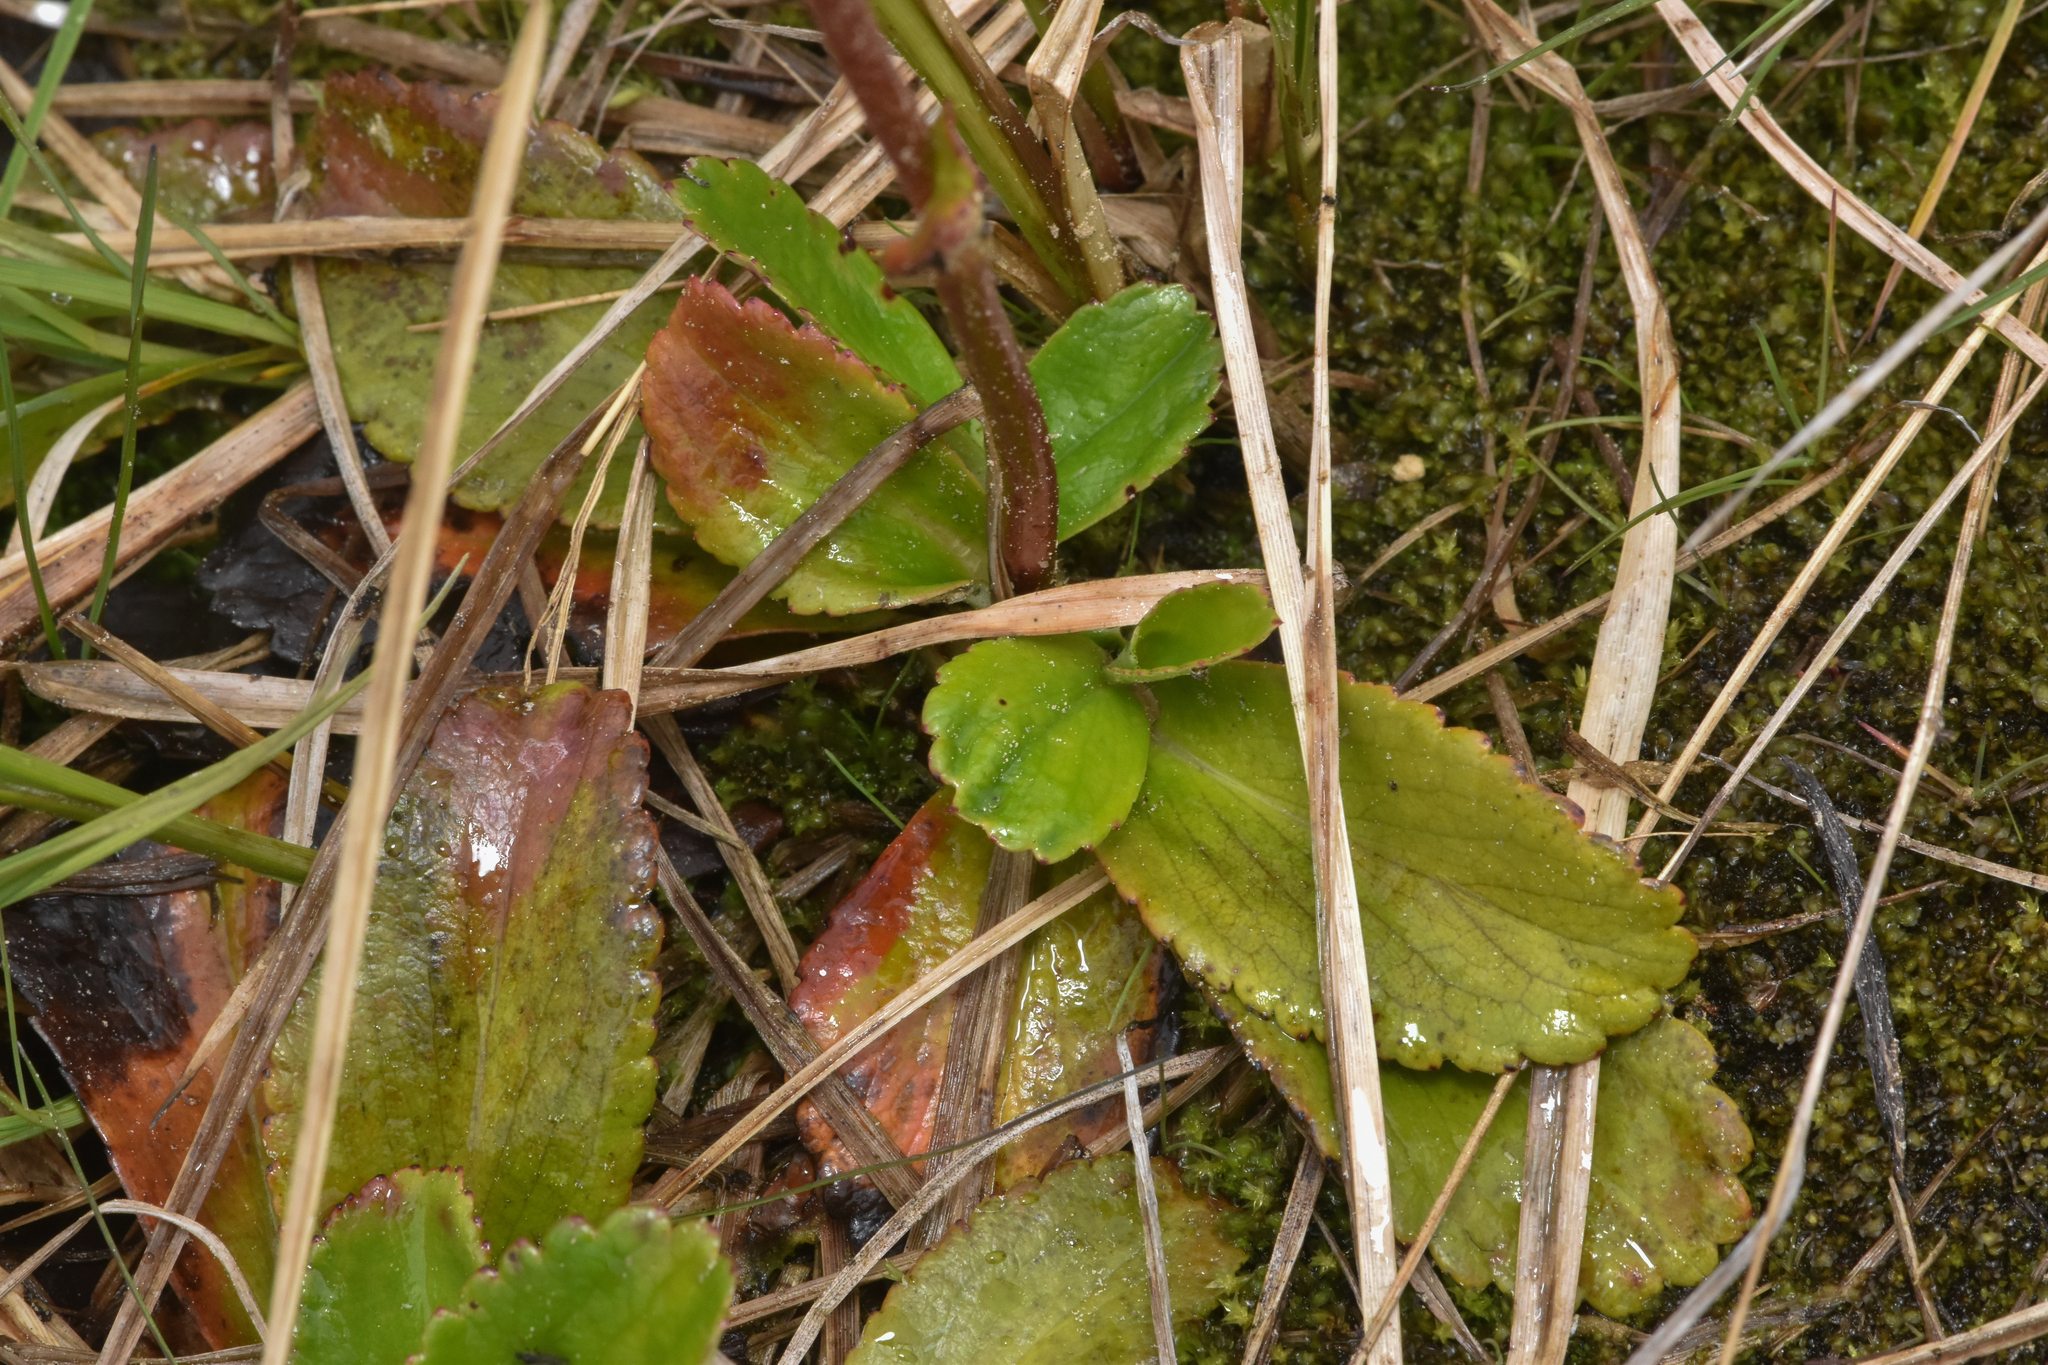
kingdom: Plantae
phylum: Tracheophyta
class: Magnoliopsida
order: Saxifragales
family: Saxifragaceae
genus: Leptarrhena
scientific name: Leptarrhena pyrolifolia
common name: Leatherleaf-saxifrage
